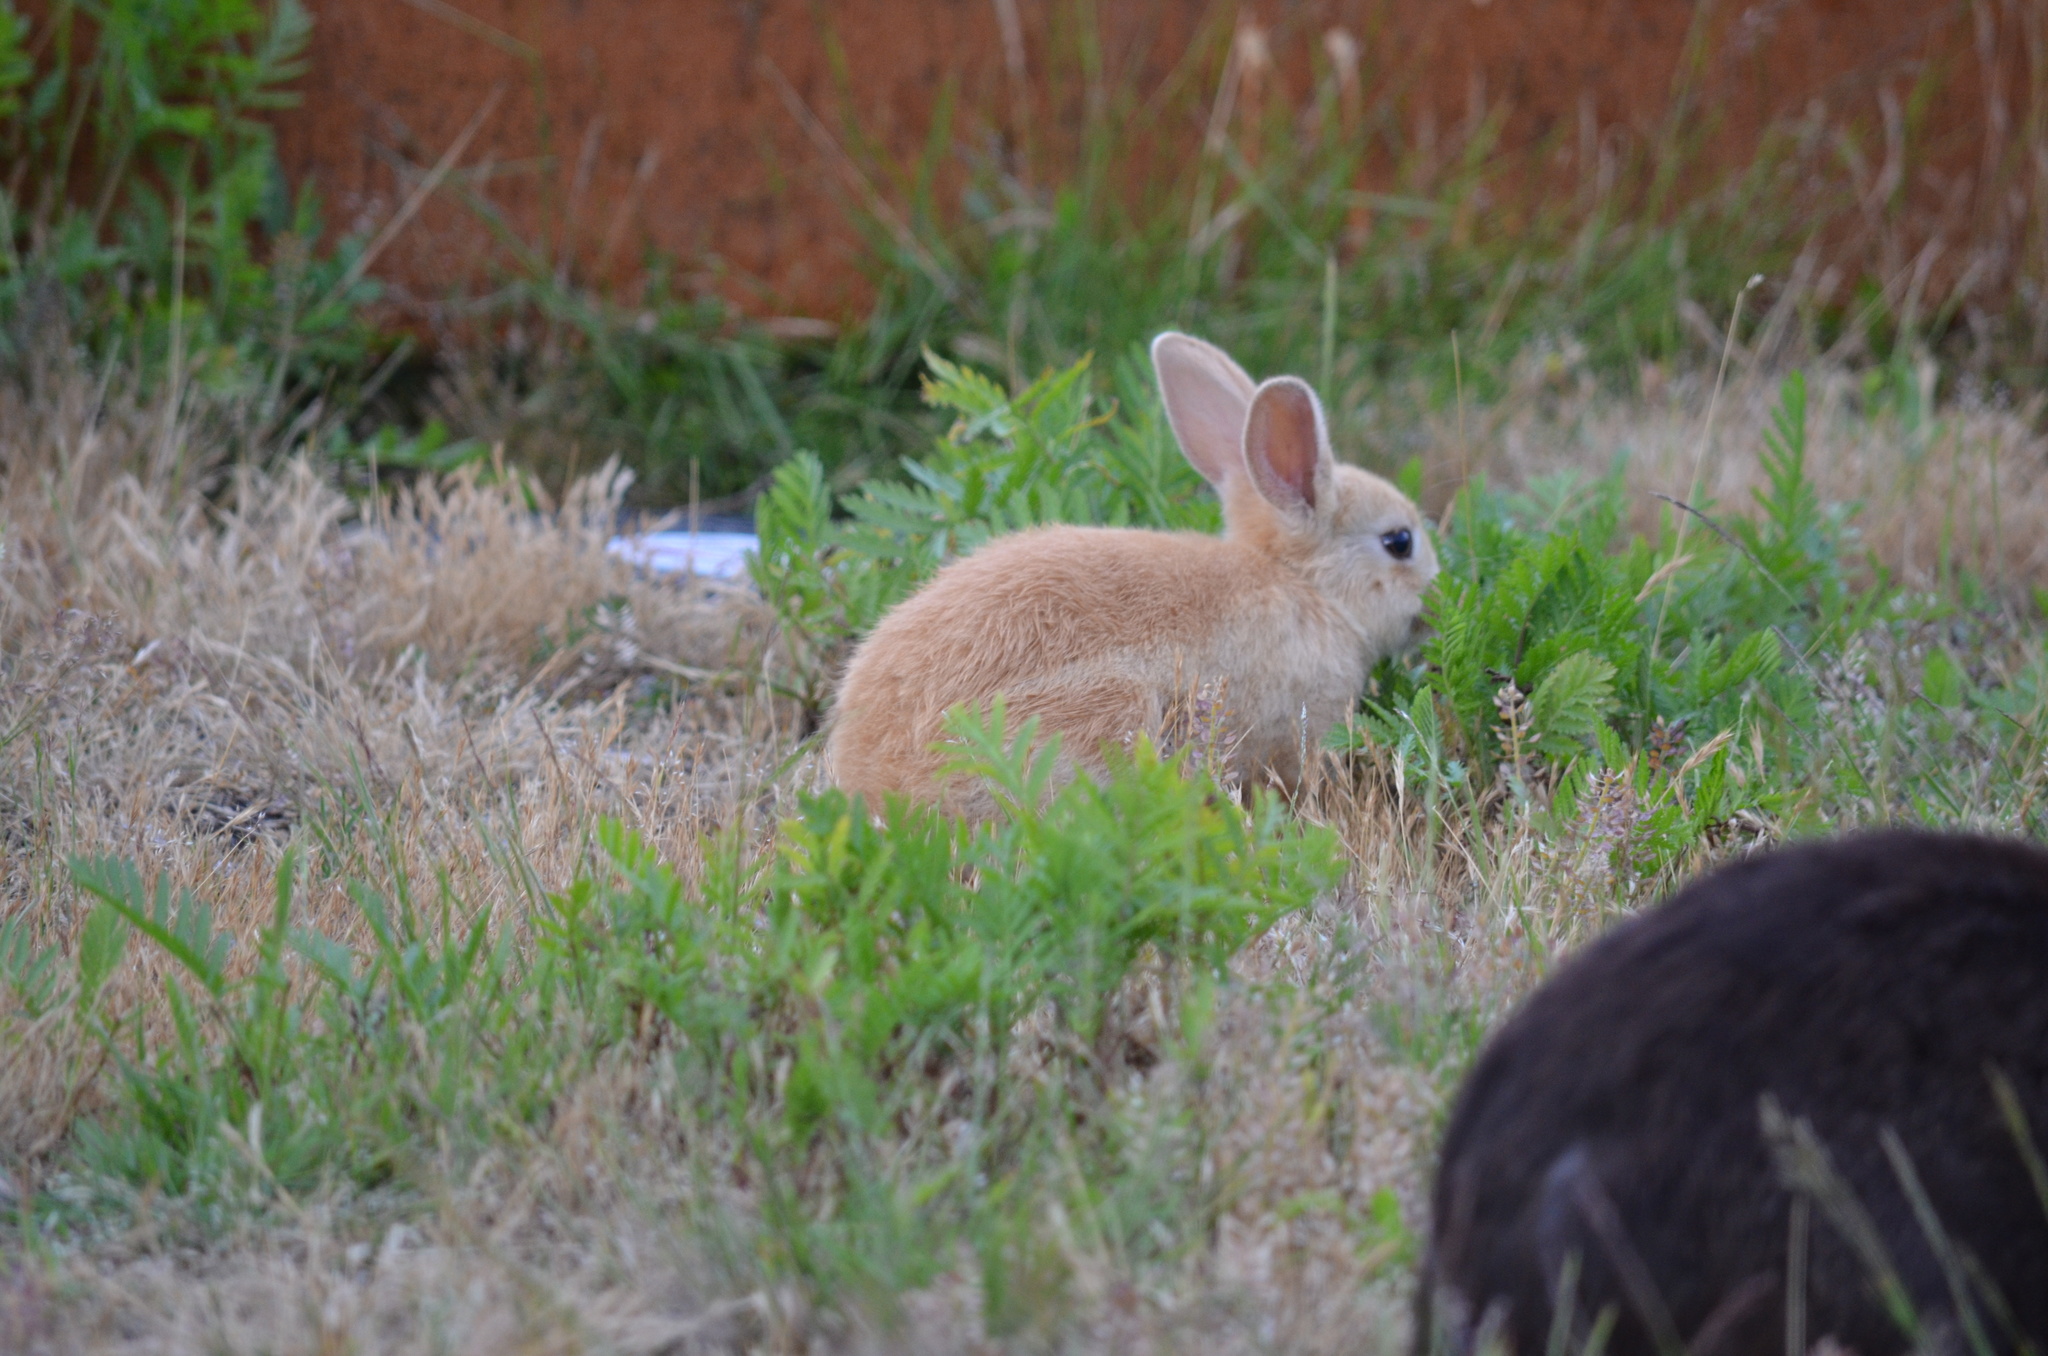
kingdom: Animalia
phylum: Chordata
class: Mammalia
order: Lagomorpha
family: Leporidae
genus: Oryctolagus
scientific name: Oryctolagus cuniculus
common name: European rabbit
